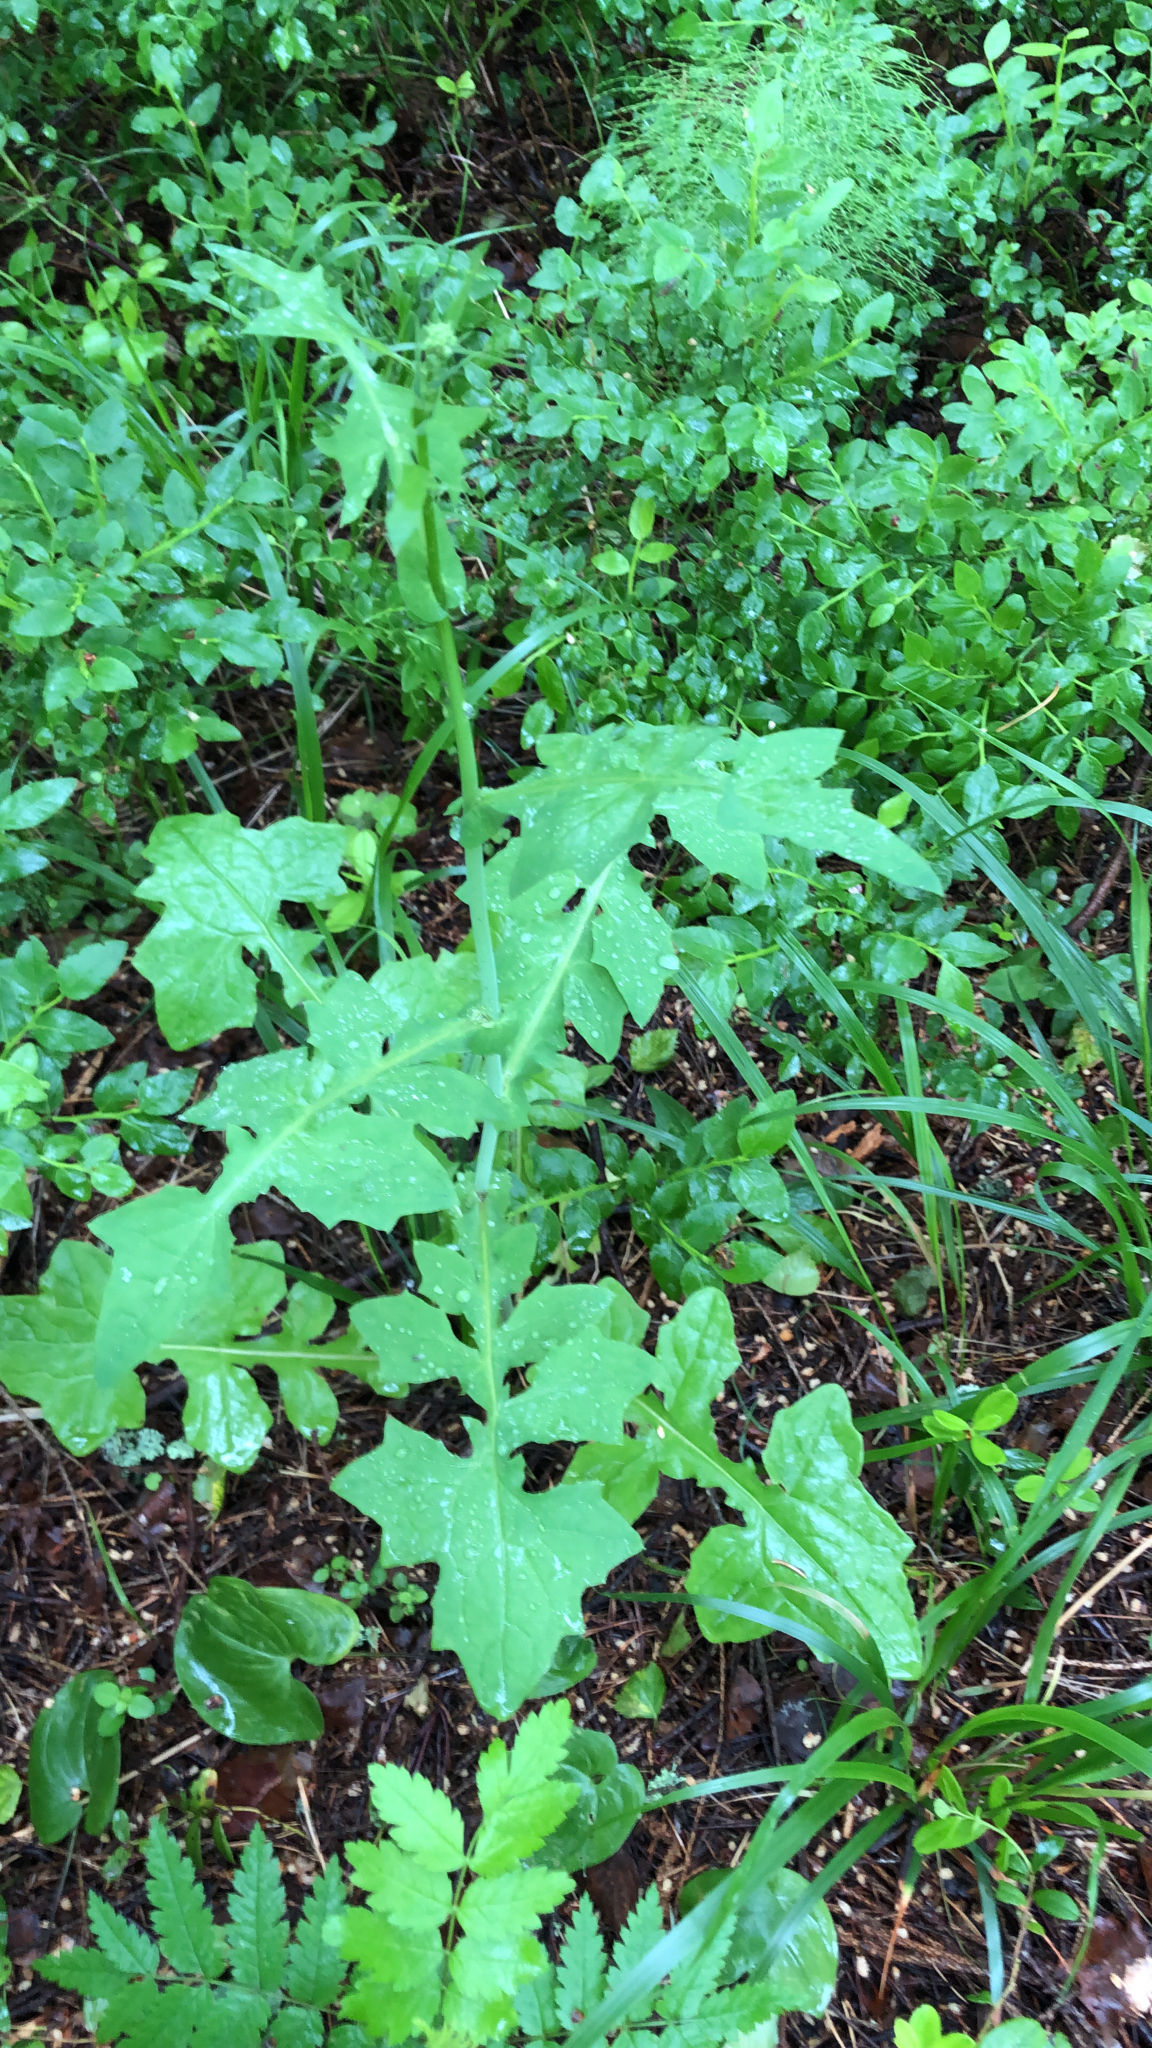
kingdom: Plantae
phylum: Tracheophyta
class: Magnoliopsida
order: Asterales
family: Asteraceae
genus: Mycelis
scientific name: Mycelis muralis
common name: Wall lettuce
